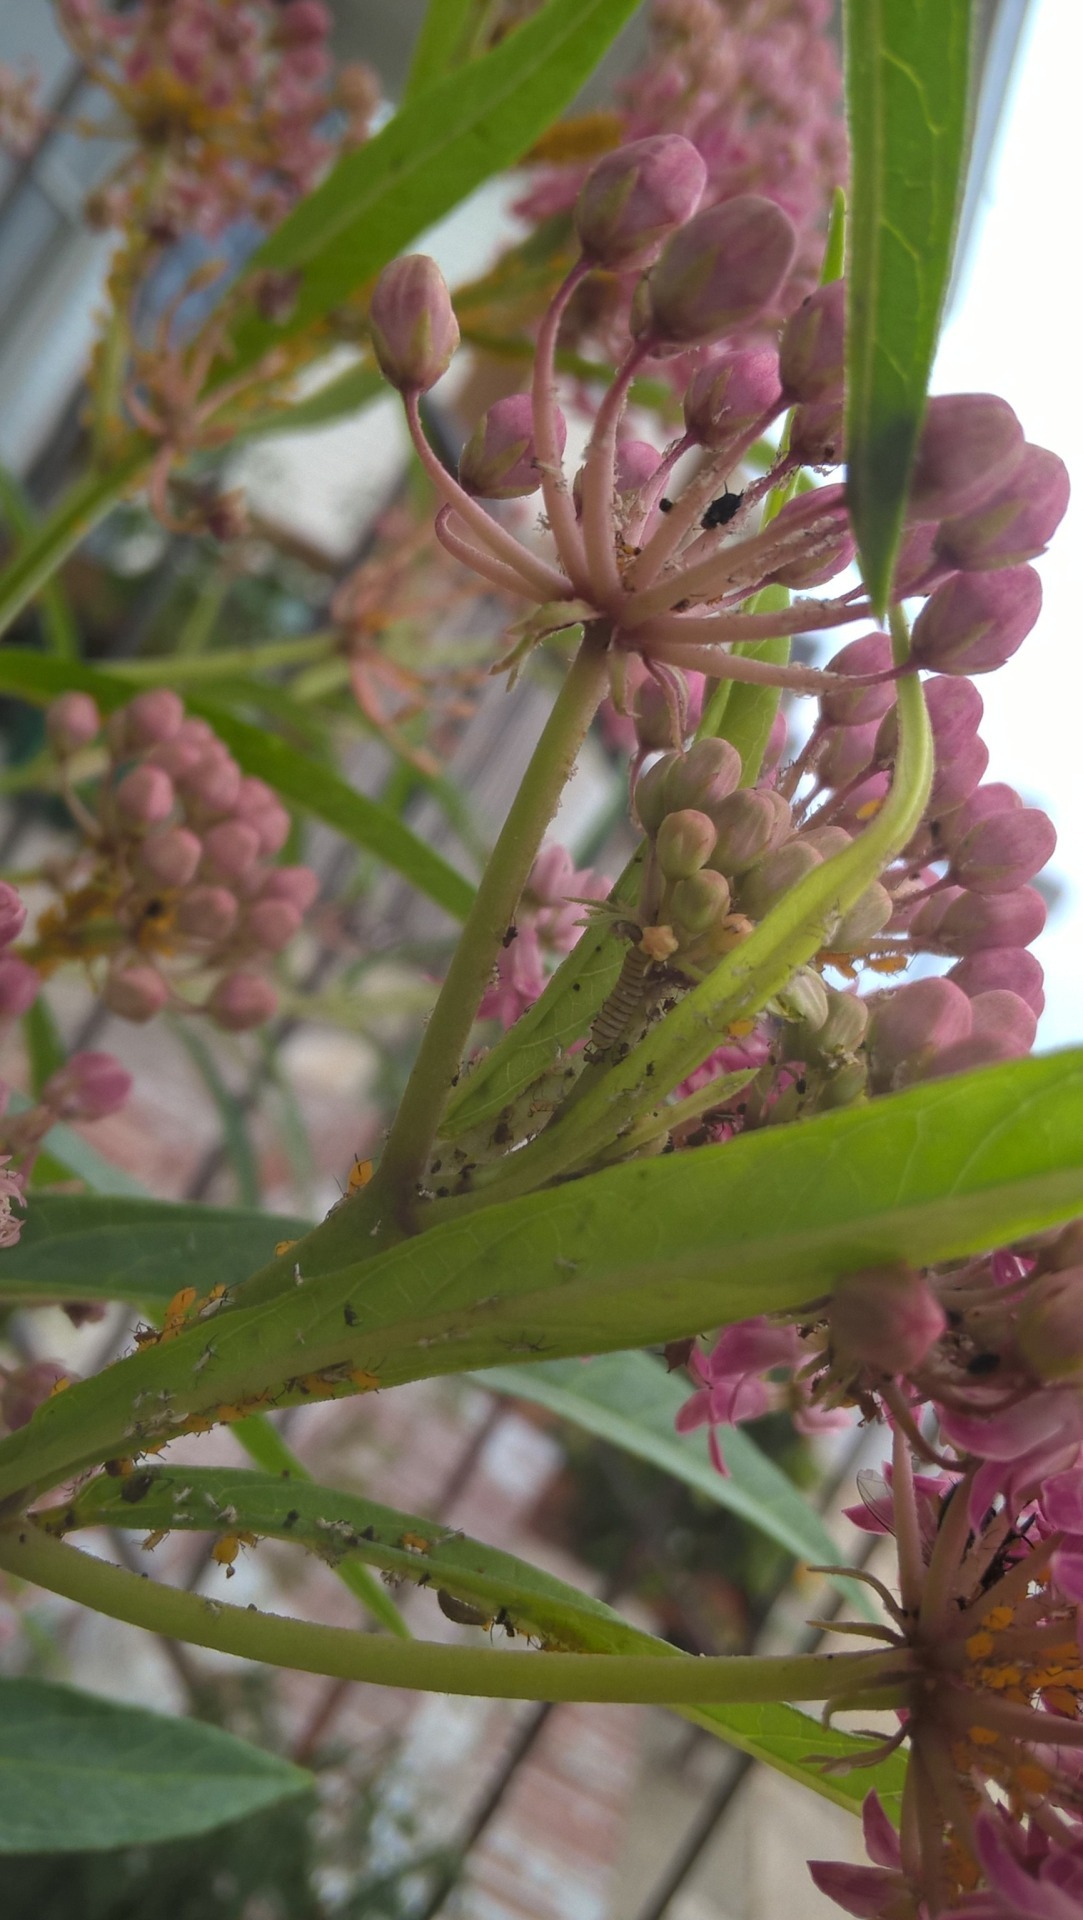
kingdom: Animalia
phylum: Arthropoda
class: Insecta
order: Lepidoptera
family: Nymphalidae
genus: Danaus
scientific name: Danaus plexippus
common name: Monarch
